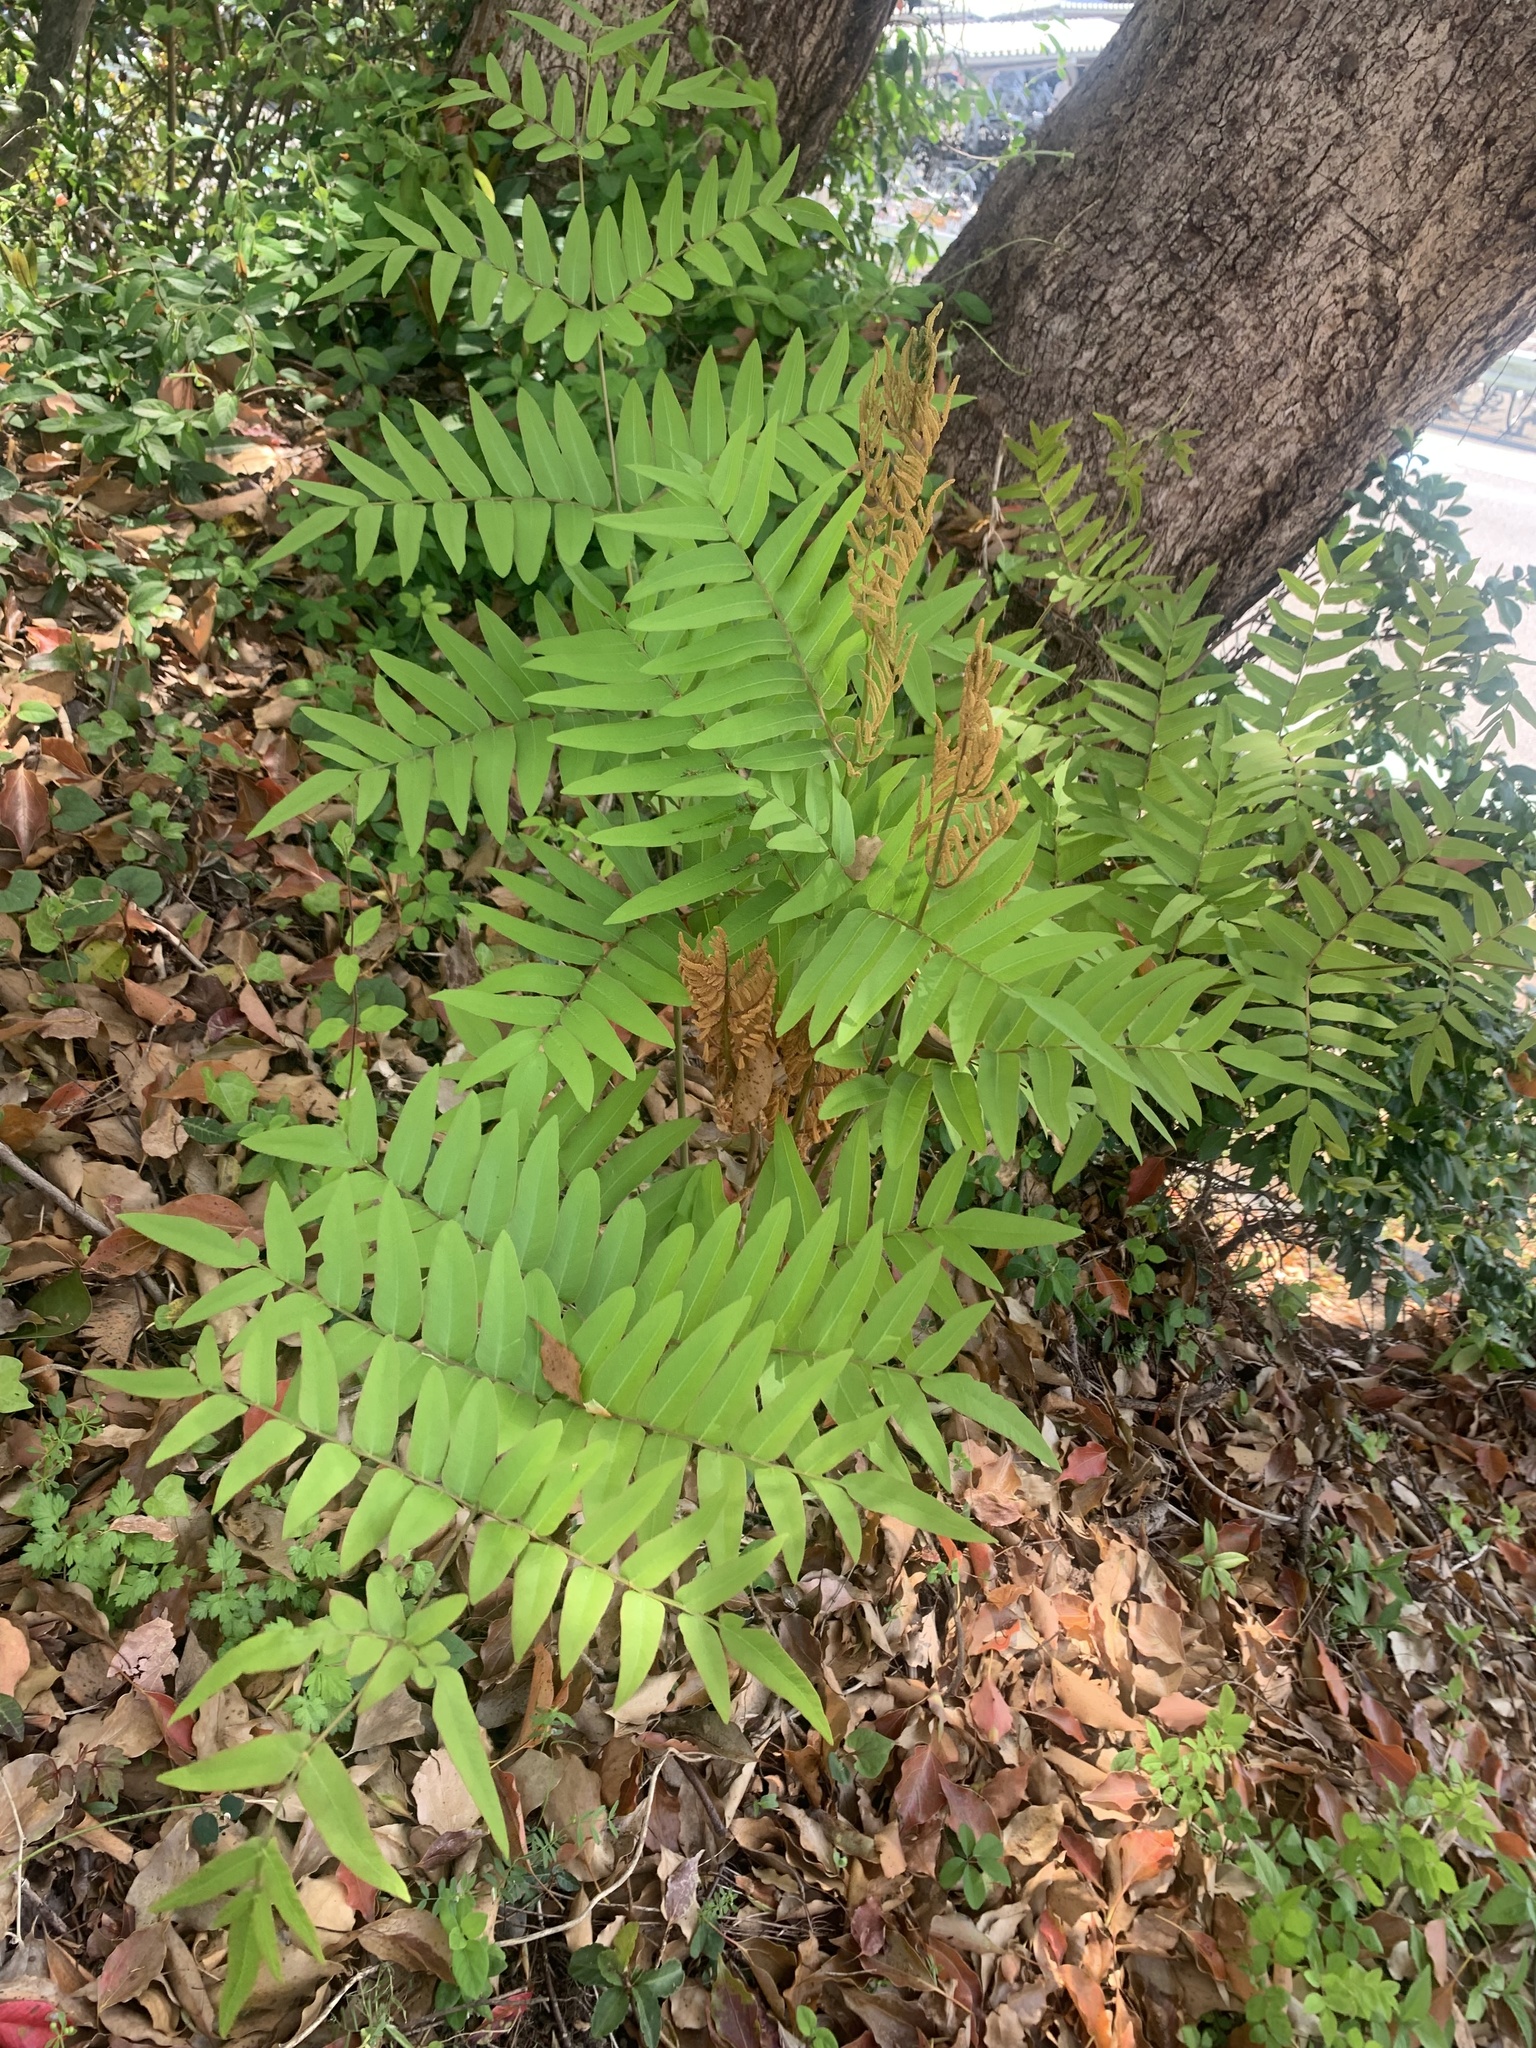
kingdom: Plantae
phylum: Tracheophyta
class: Polypodiopsida
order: Osmundales
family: Osmundaceae
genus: Osmunda
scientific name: Osmunda japonica
